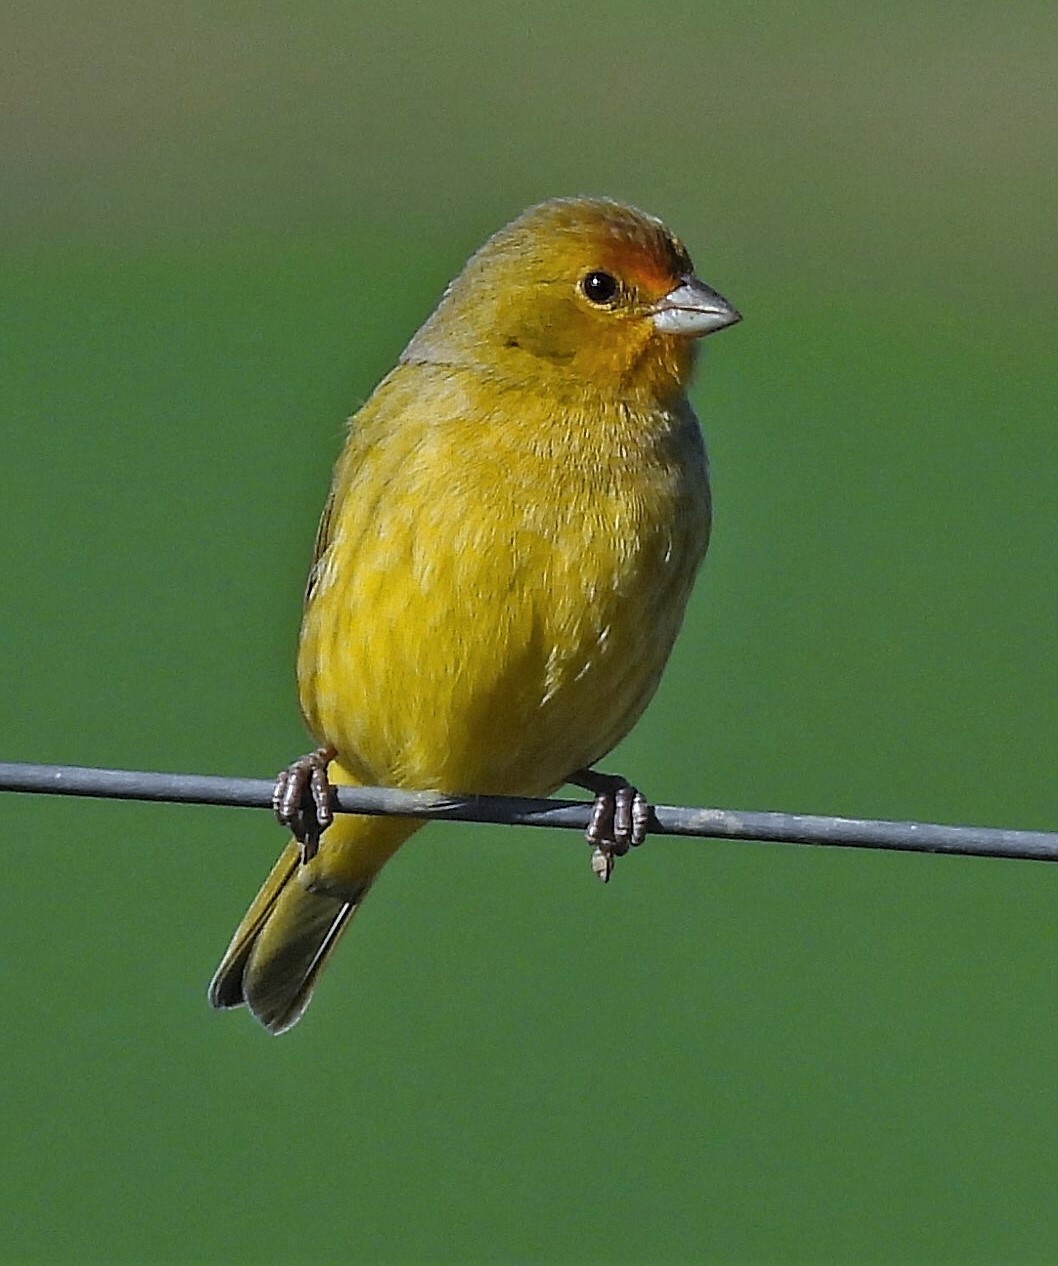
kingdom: Animalia
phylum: Chordata
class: Aves
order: Passeriformes
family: Thraupidae
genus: Sicalis
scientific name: Sicalis flaveola
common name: Saffron finch
